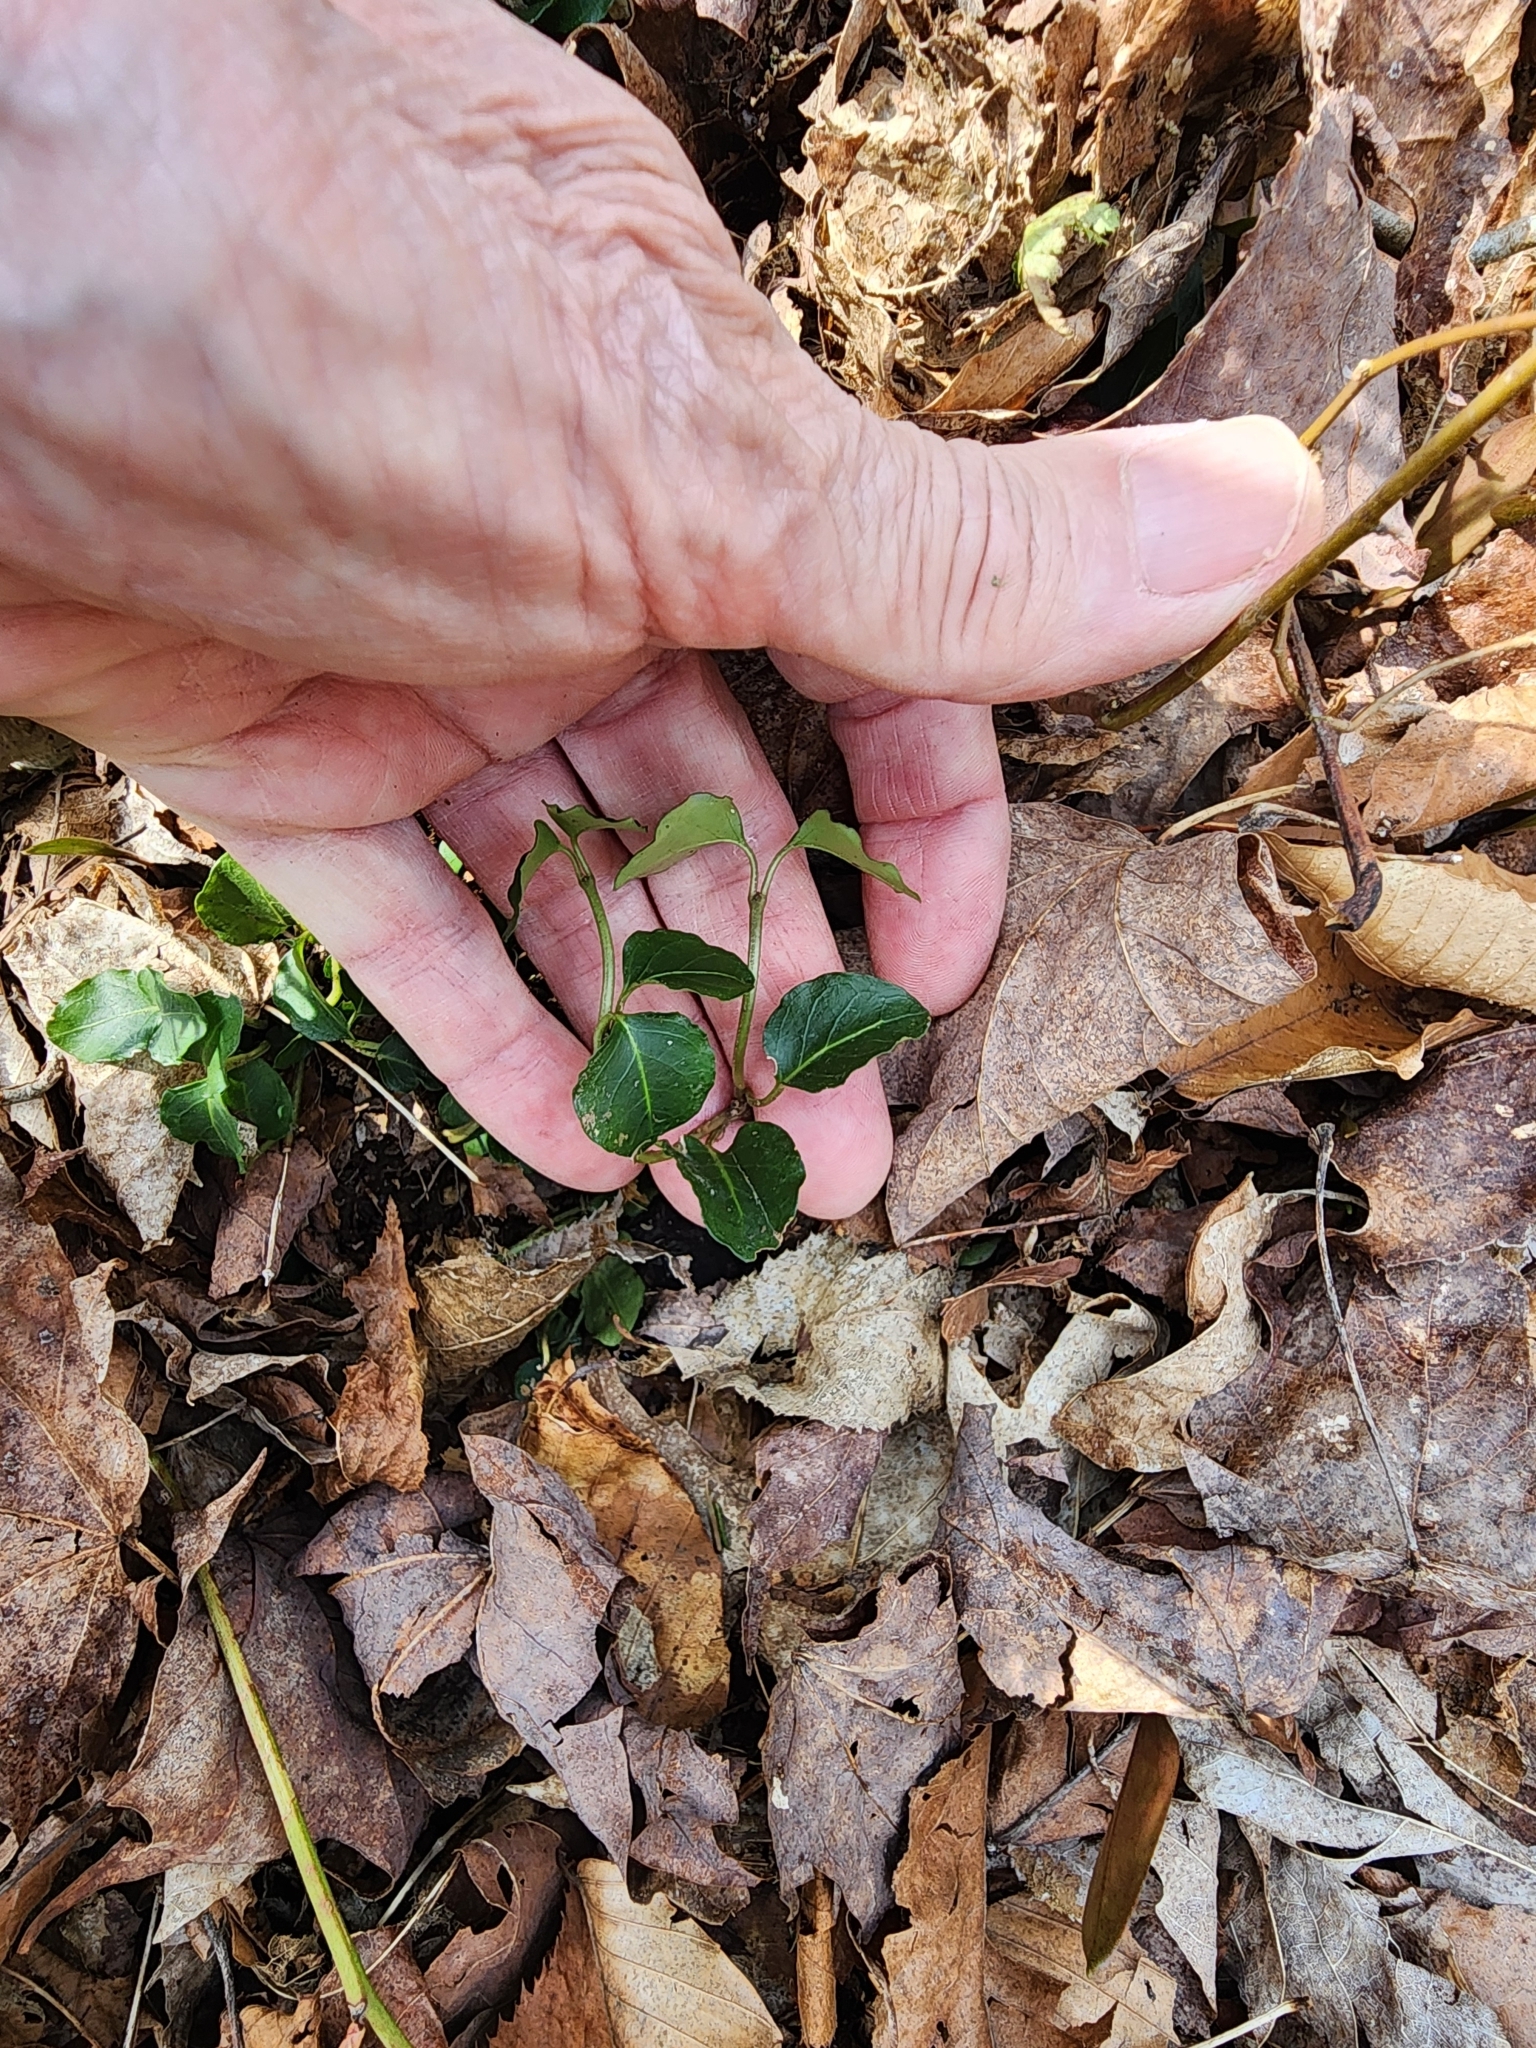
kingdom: Plantae
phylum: Tracheophyta
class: Magnoliopsida
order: Gentianales
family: Rubiaceae
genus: Mitchella
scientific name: Mitchella repens
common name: Partridge-berry
